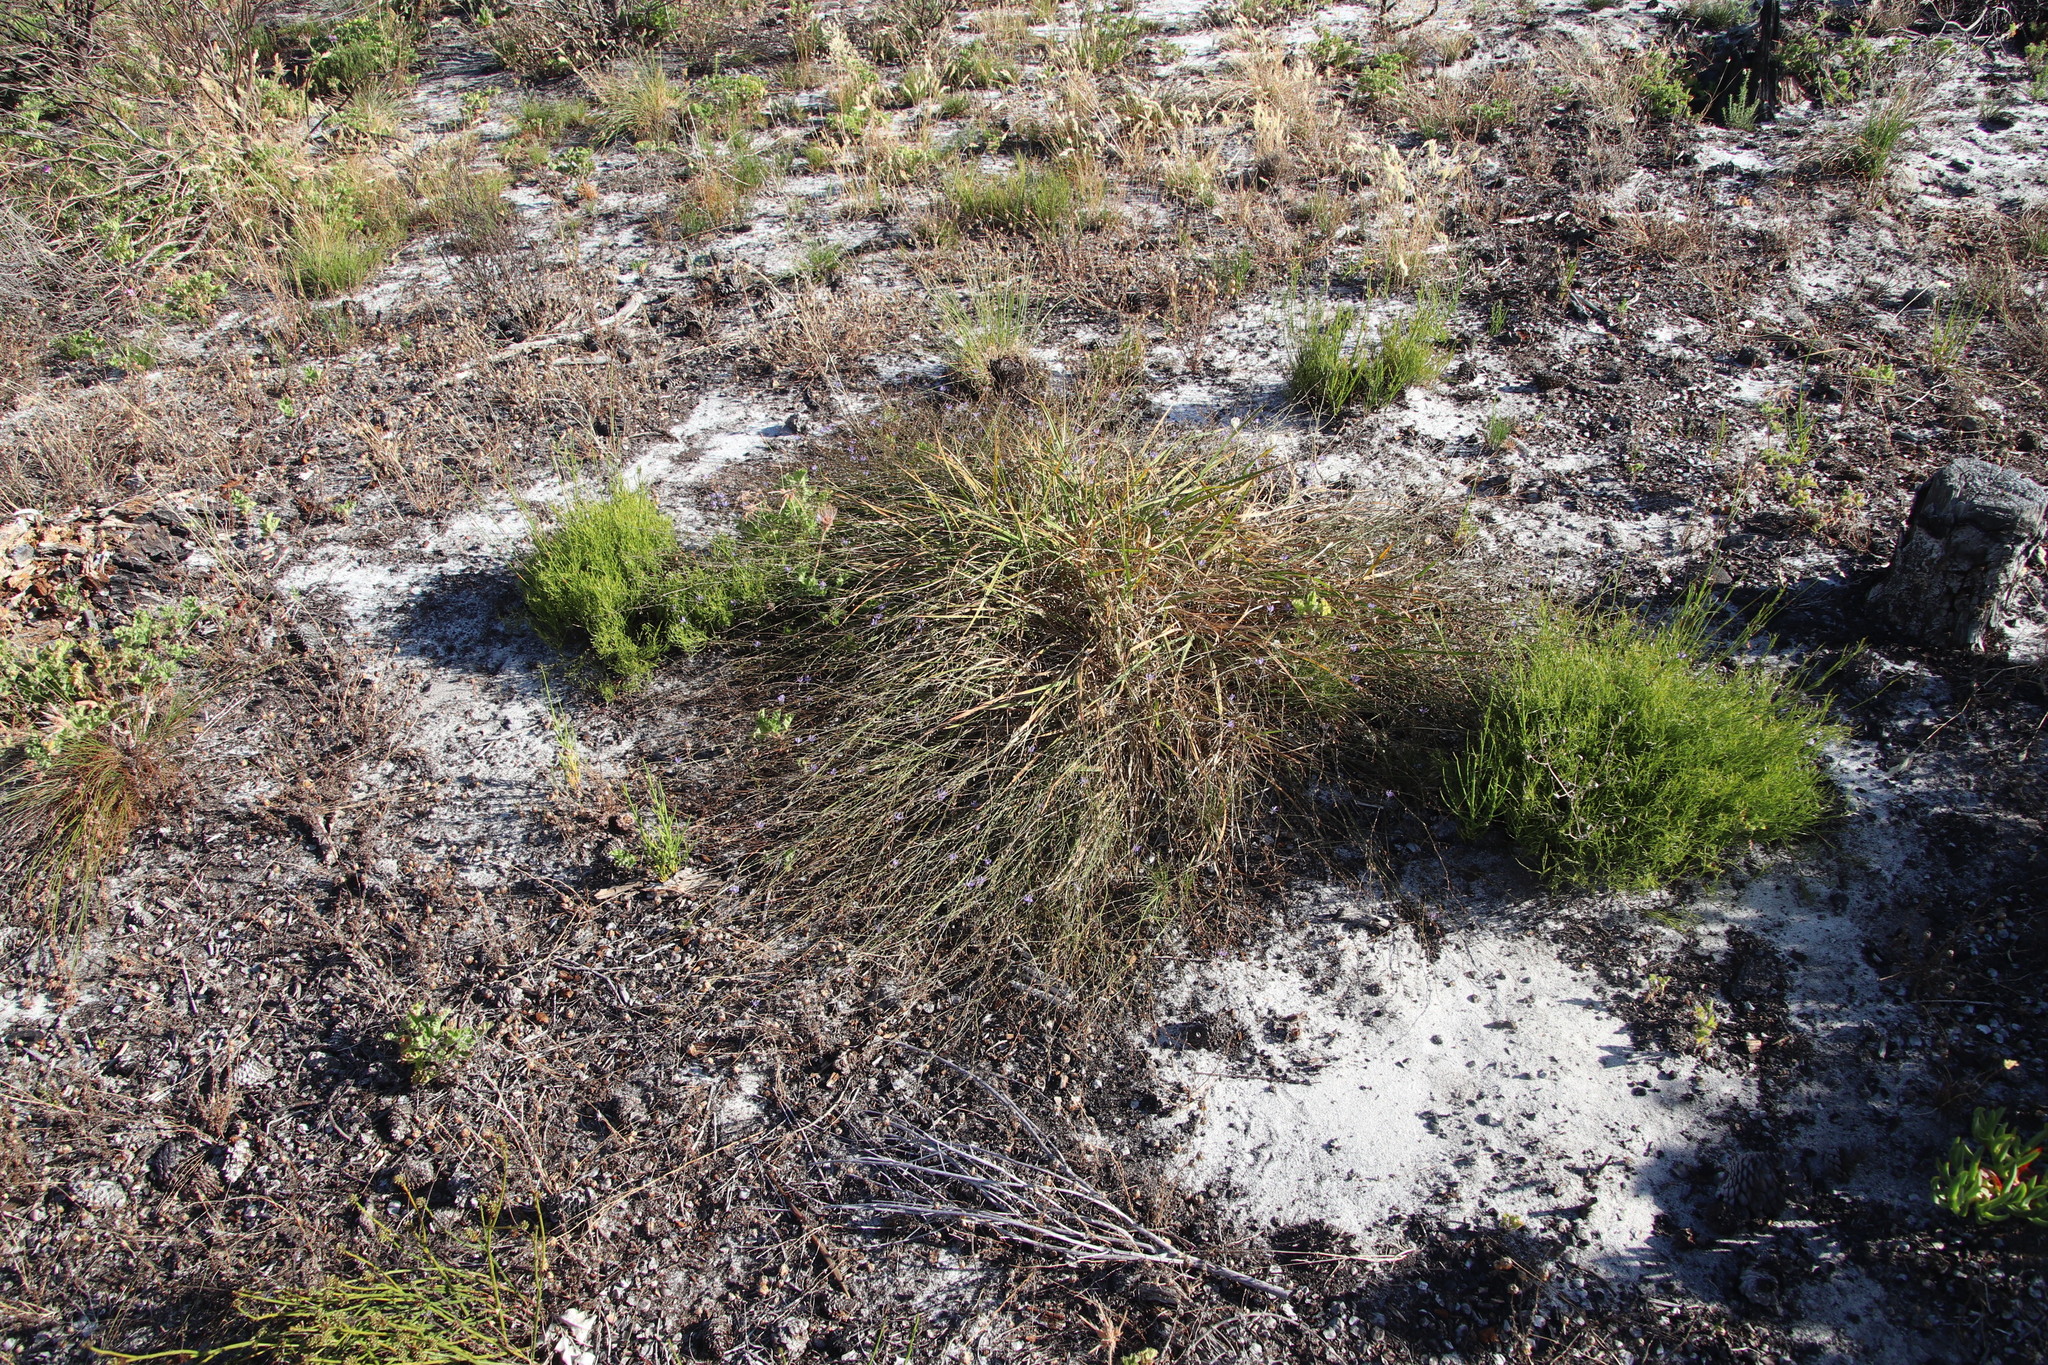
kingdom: Plantae
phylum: Tracheophyta
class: Liliopsida
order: Asparagales
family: Asphodelaceae
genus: Caesia
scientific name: Caesia contorta
